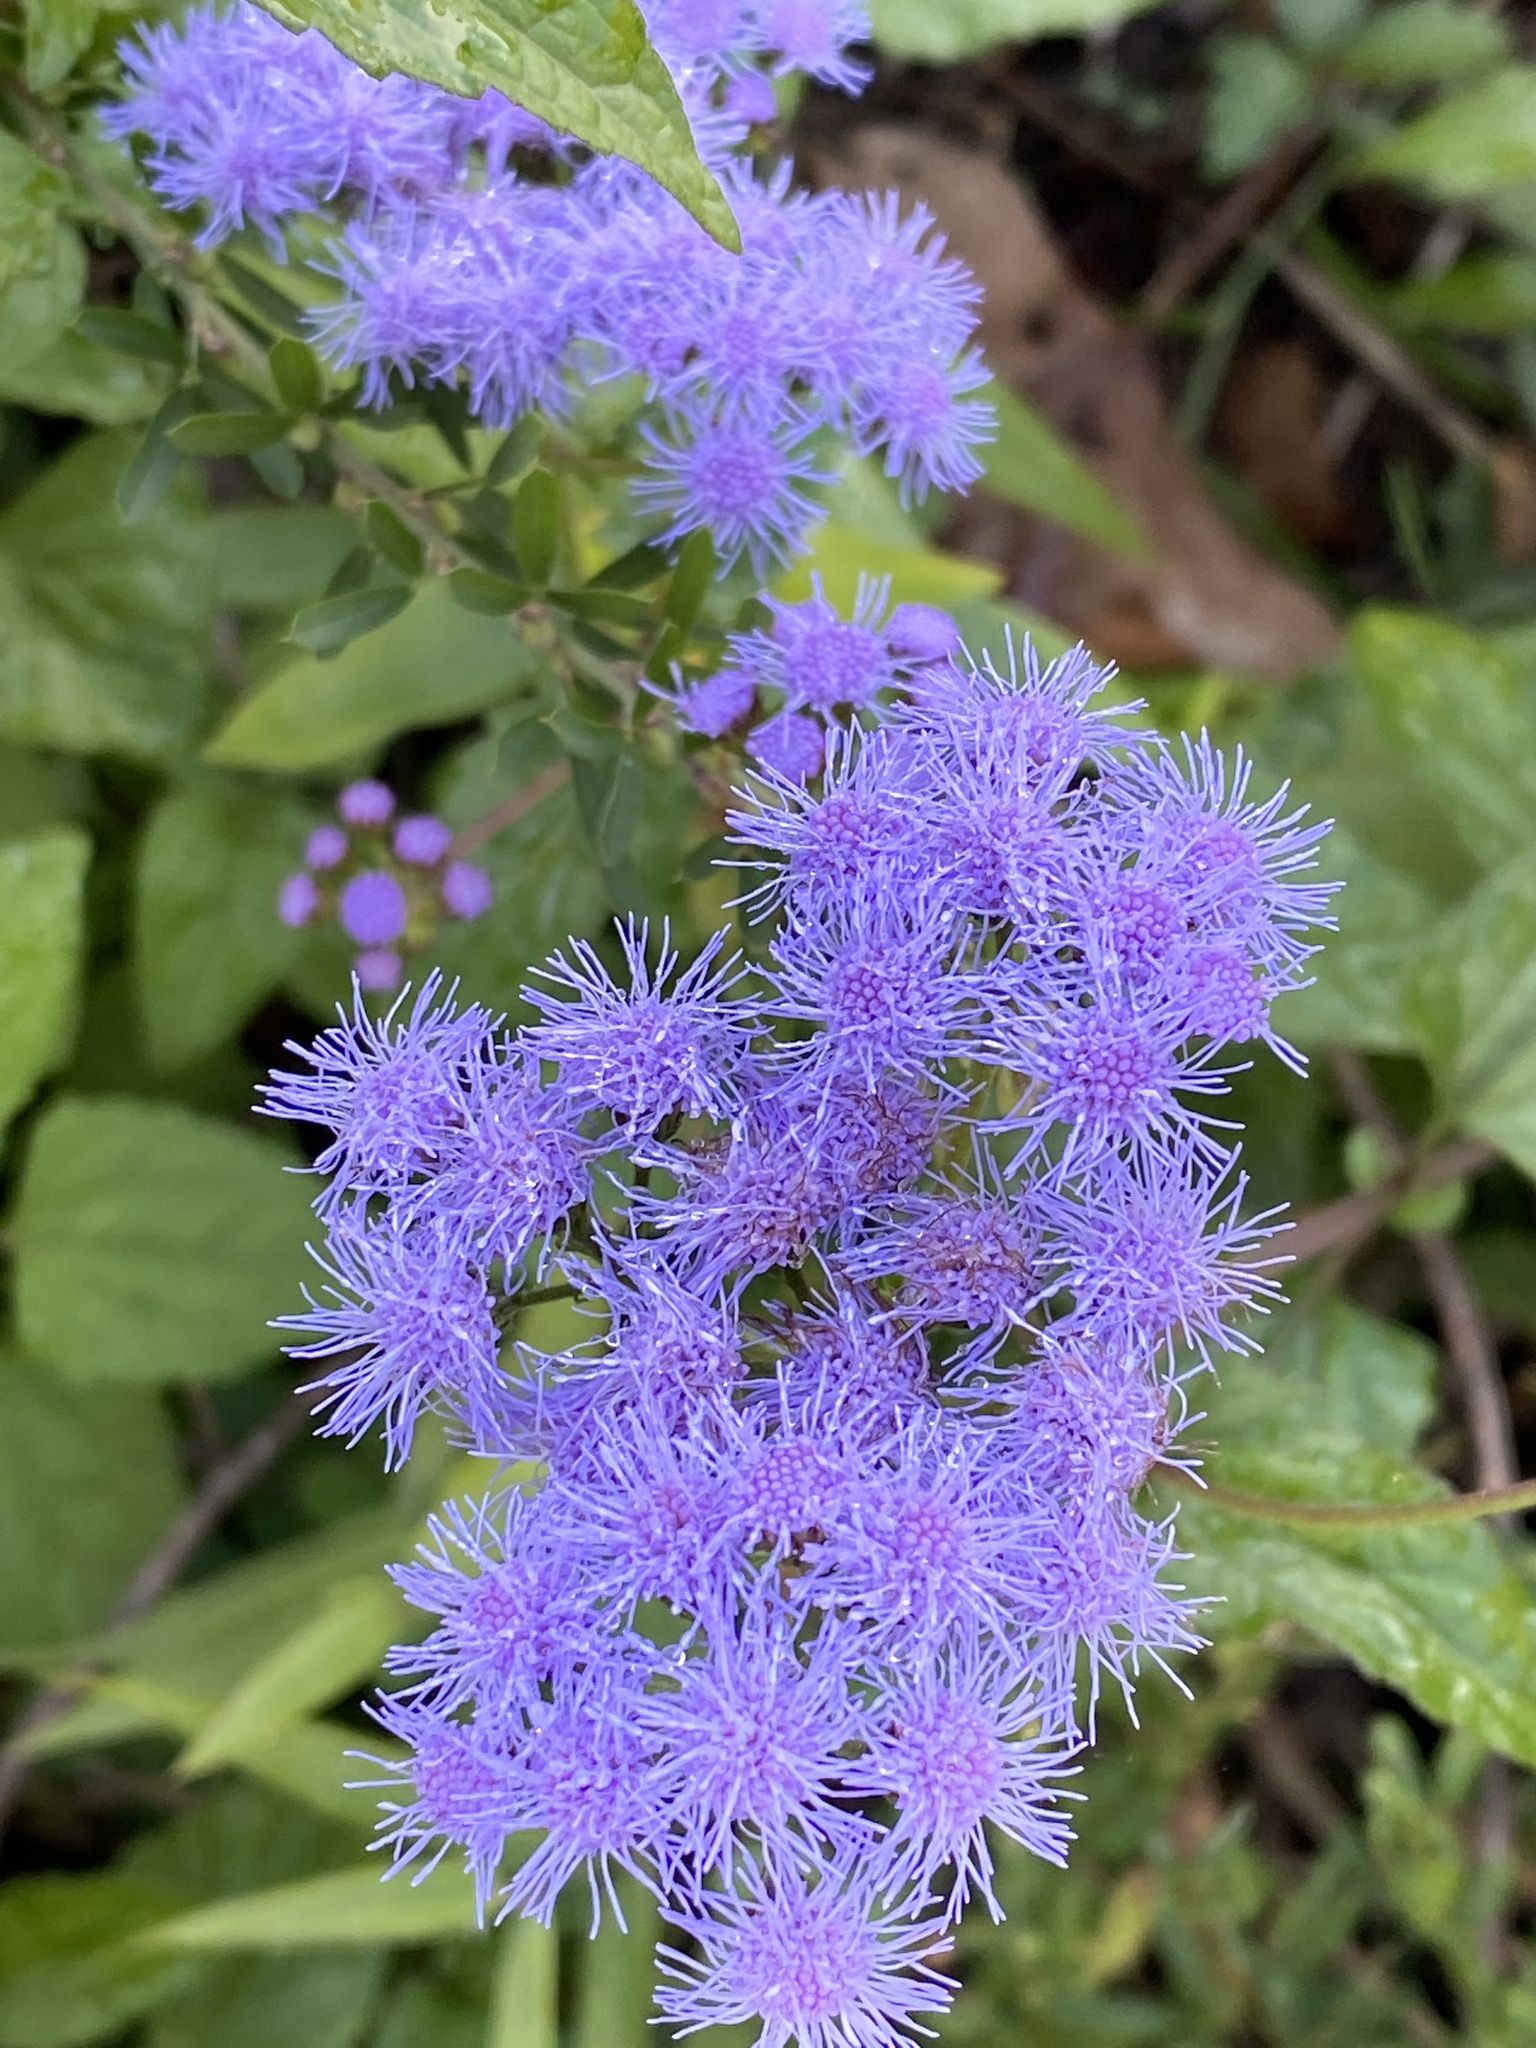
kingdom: Plantae
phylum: Tracheophyta
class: Magnoliopsida
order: Asterales
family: Asteraceae
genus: Conoclinium
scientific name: Conoclinium coelestinum
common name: Blue mistflower
